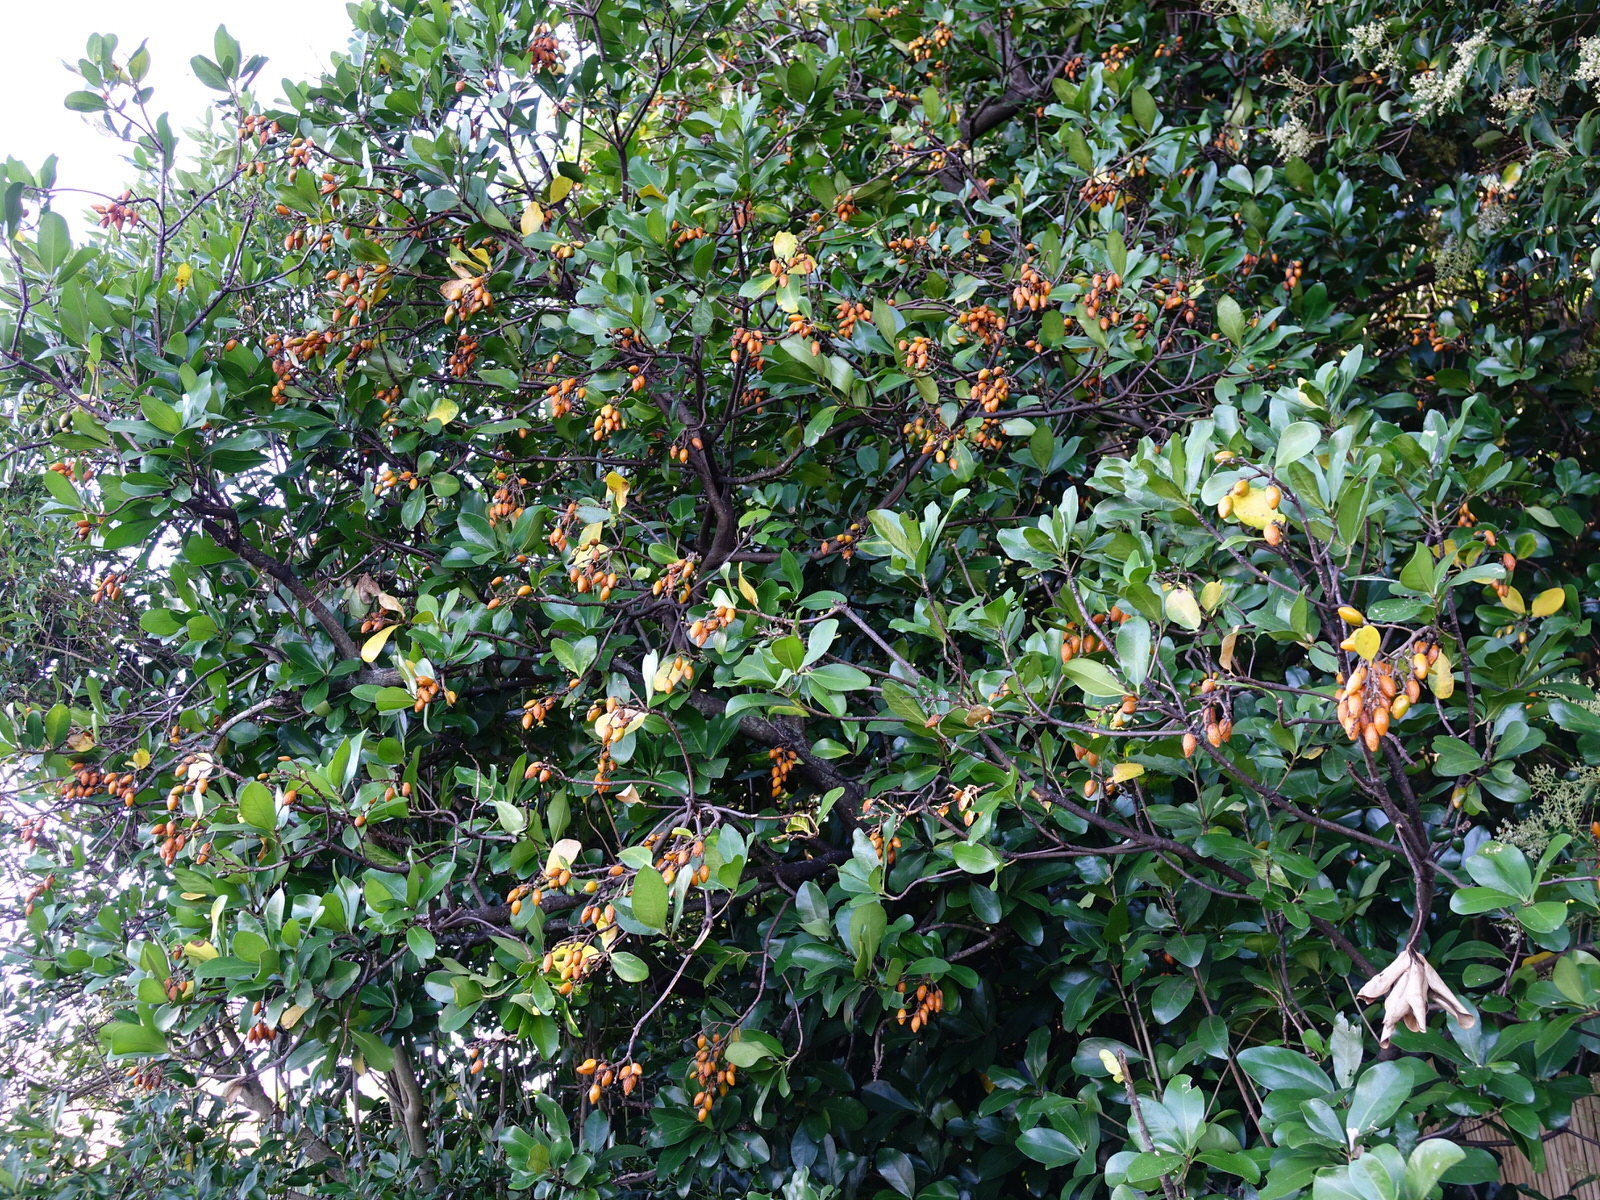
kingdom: Plantae
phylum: Tracheophyta
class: Magnoliopsida
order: Cucurbitales
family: Corynocarpaceae
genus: Corynocarpus
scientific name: Corynocarpus laevigatus
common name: New zealand laurel
